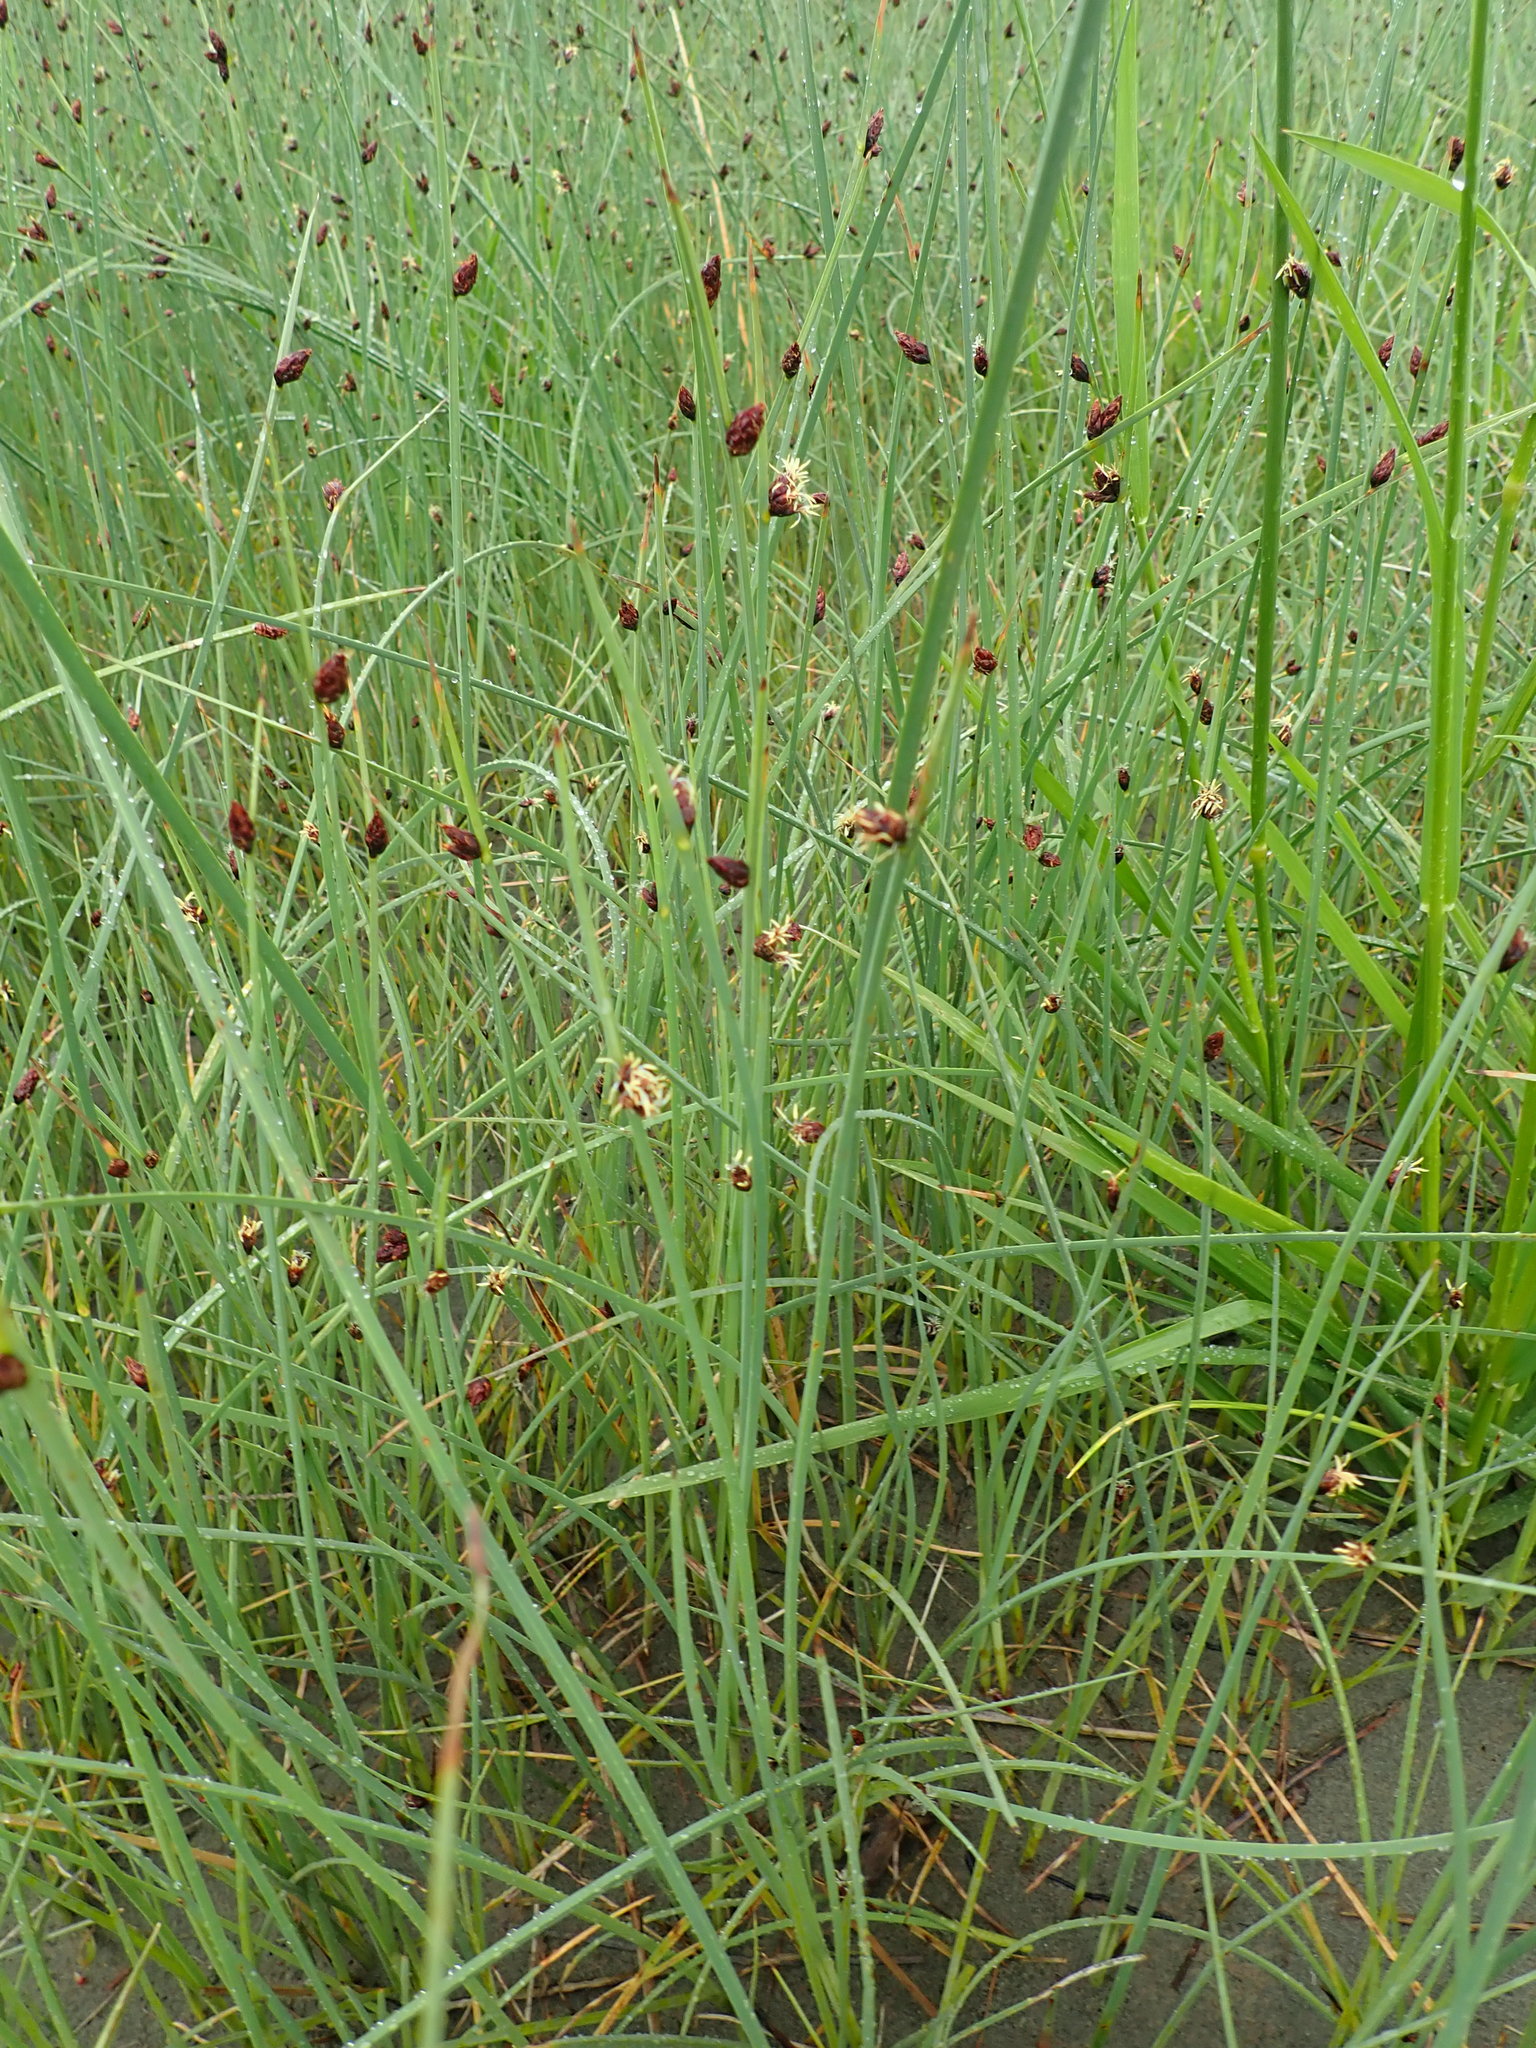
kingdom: Plantae
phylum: Tracheophyta
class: Liliopsida
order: Poales
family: Cyperaceae
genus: Schoenoplectus
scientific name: Schoenoplectus pungens
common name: Sharp club-rush
